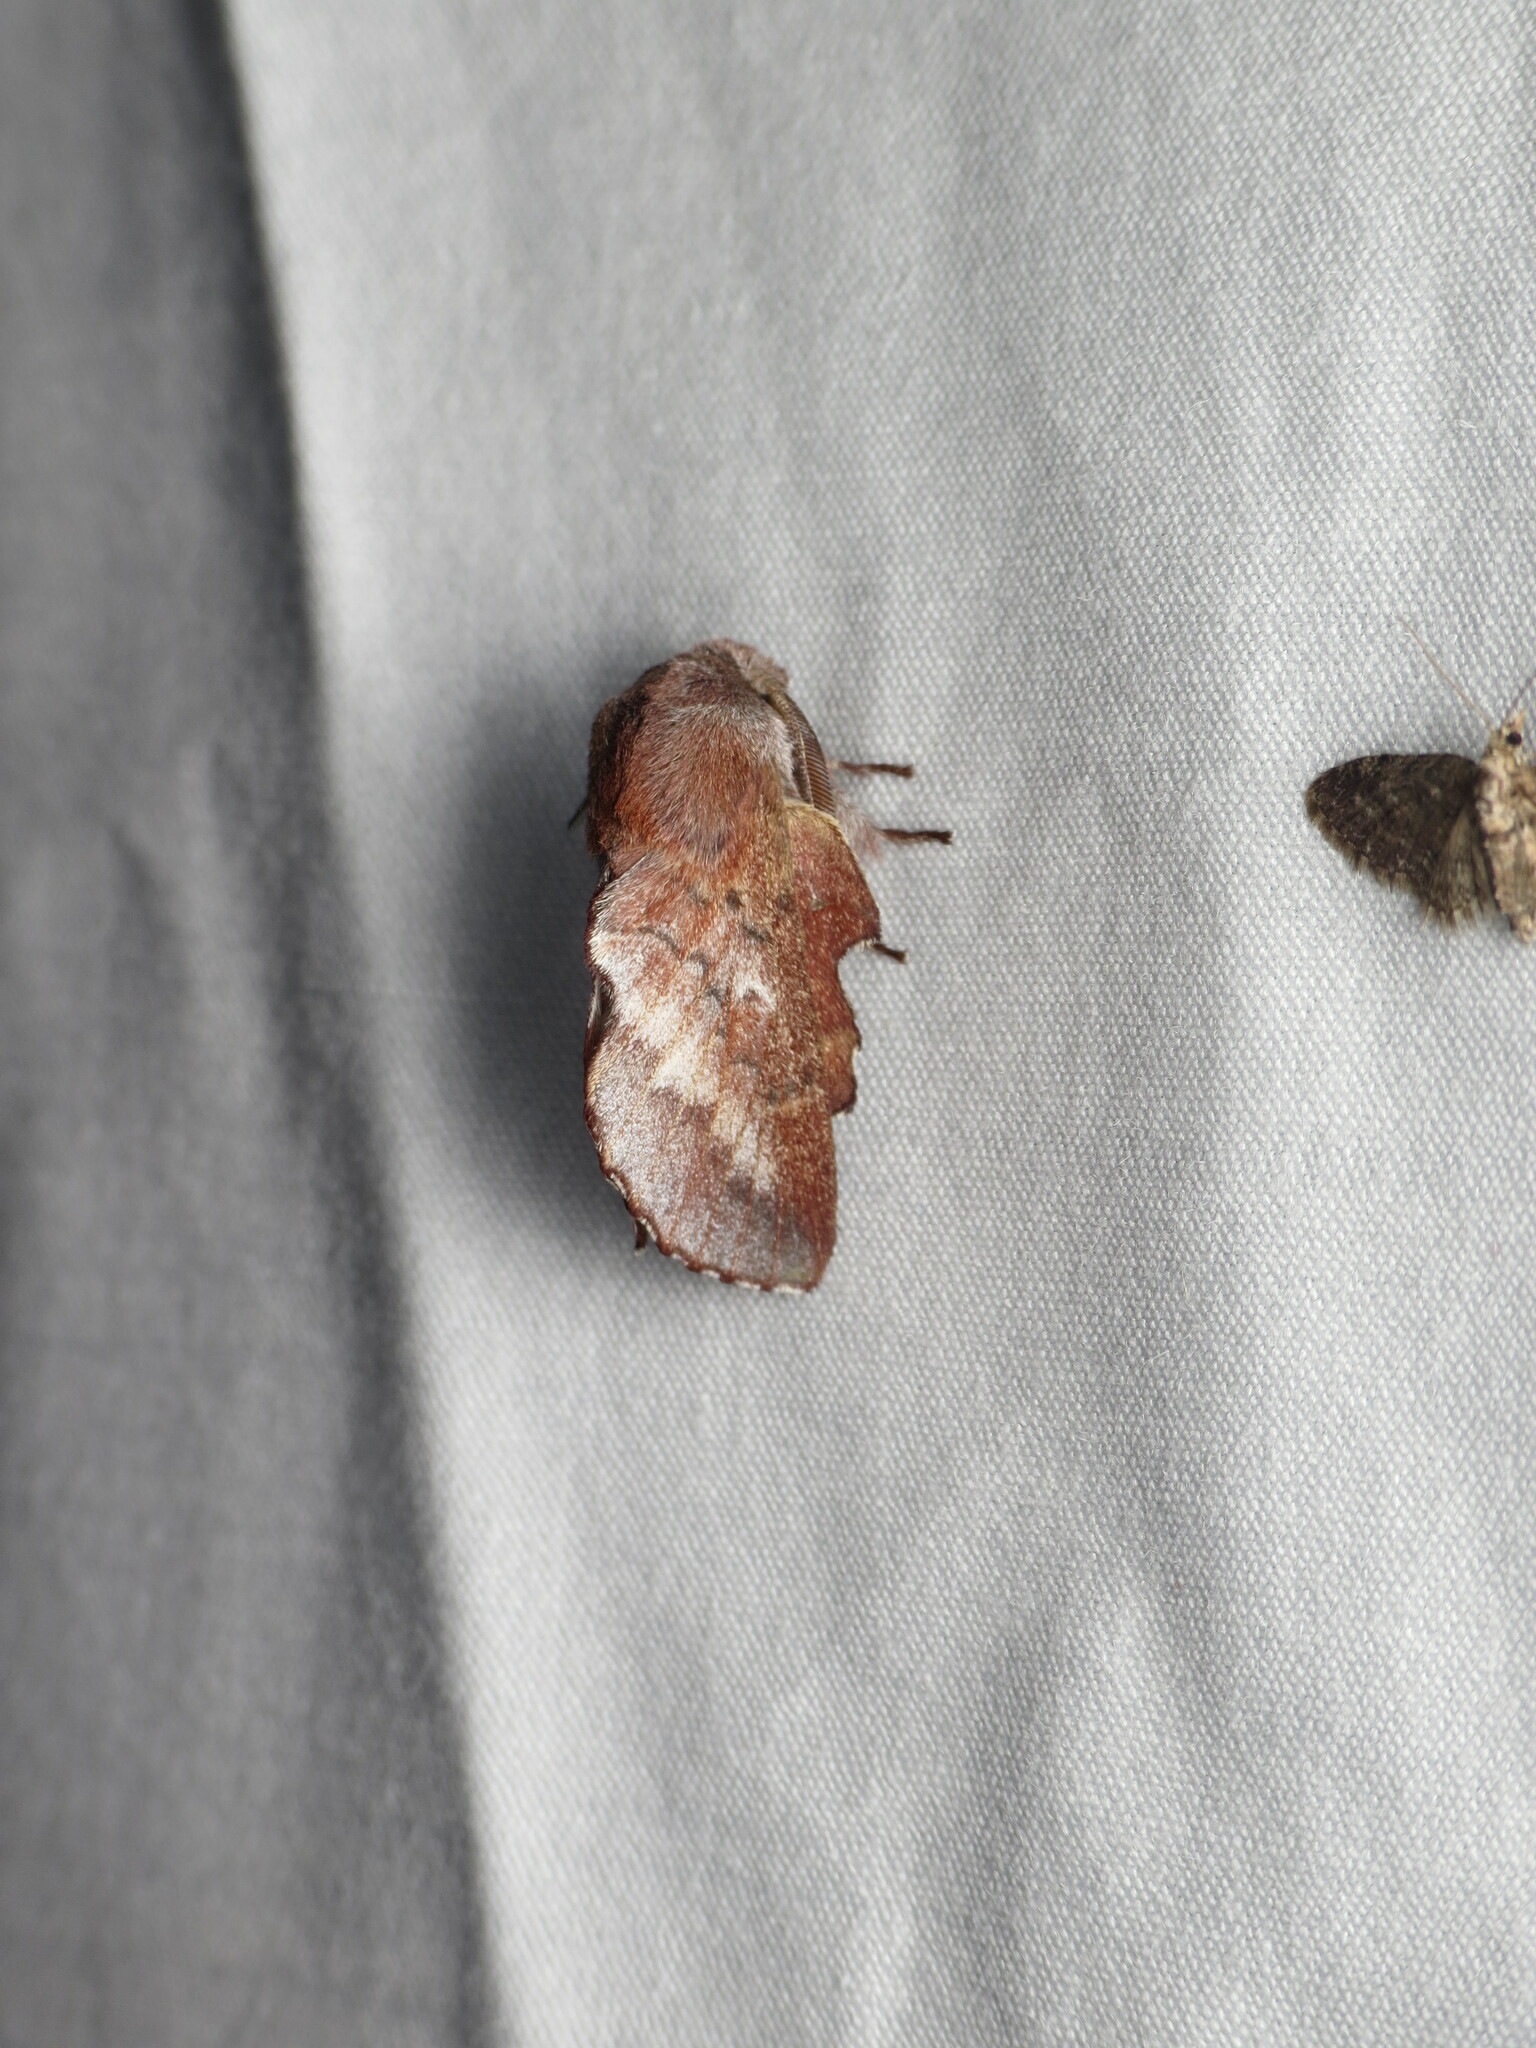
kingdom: Animalia
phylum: Arthropoda
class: Insecta
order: Lepidoptera
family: Lasiocampidae
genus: Phyllodesma
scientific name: Phyllodesma americana
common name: American lappet moth
